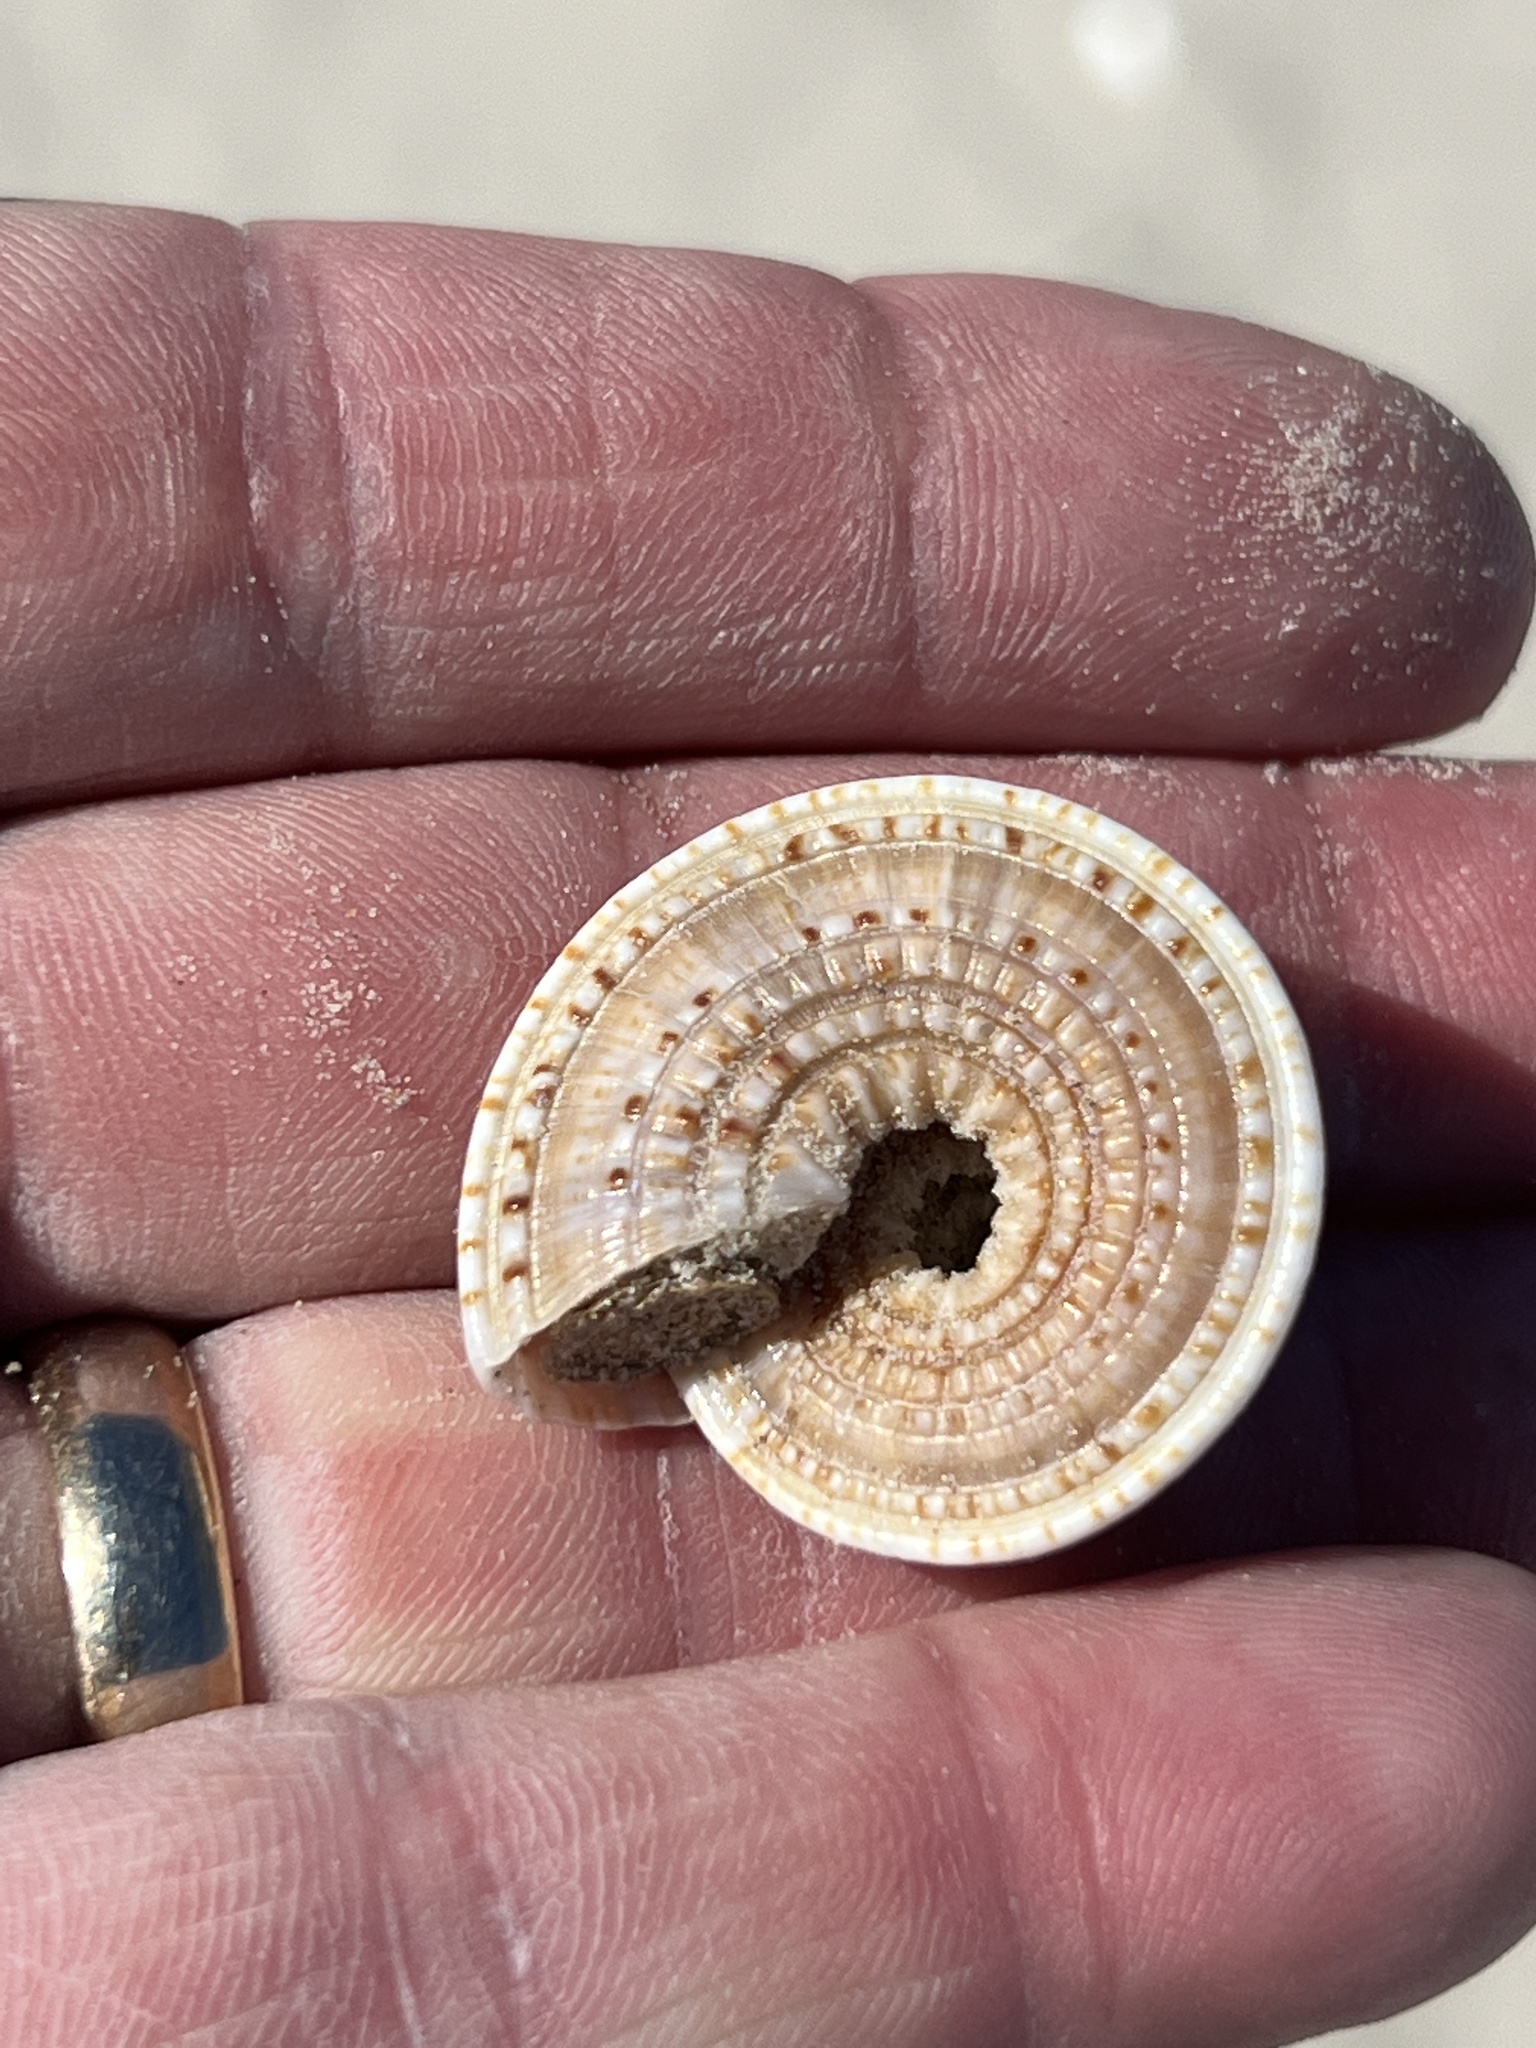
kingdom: Animalia
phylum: Mollusca
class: Gastropoda
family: Architectonicidae
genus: Architectonica
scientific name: Architectonica nobilis
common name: Common sundial
